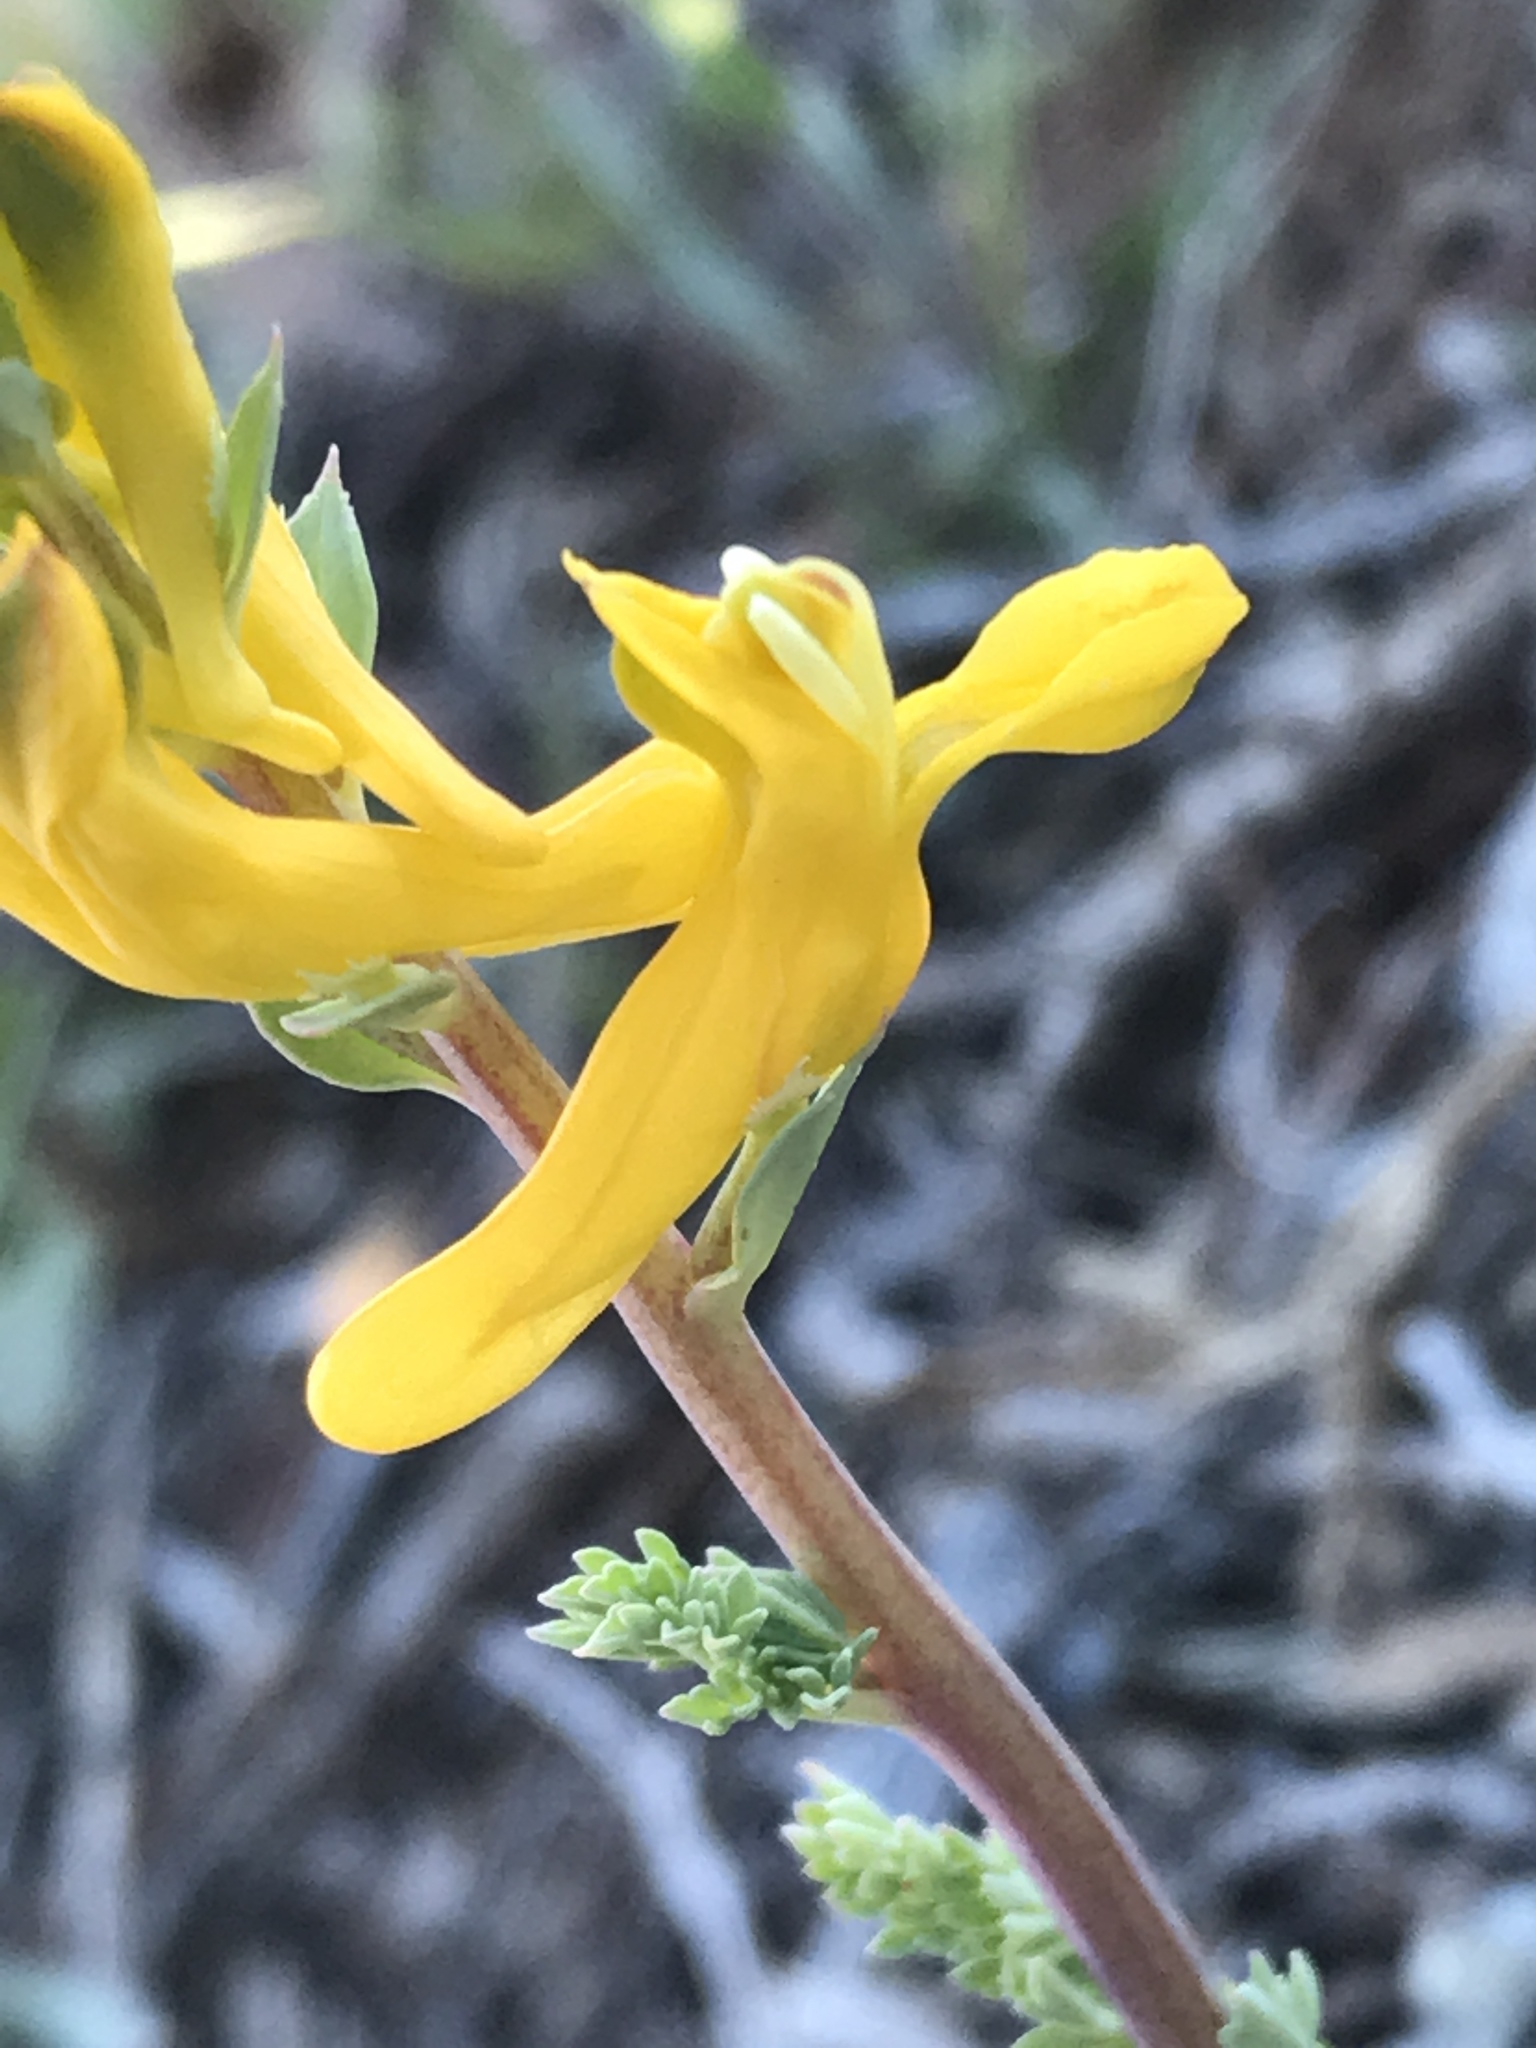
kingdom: Plantae
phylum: Tracheophyta
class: Magnoliopsida
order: Ranunculales
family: Papaveraceae
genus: Corydalis
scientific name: Corydalis aurea
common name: Golden corydalis
